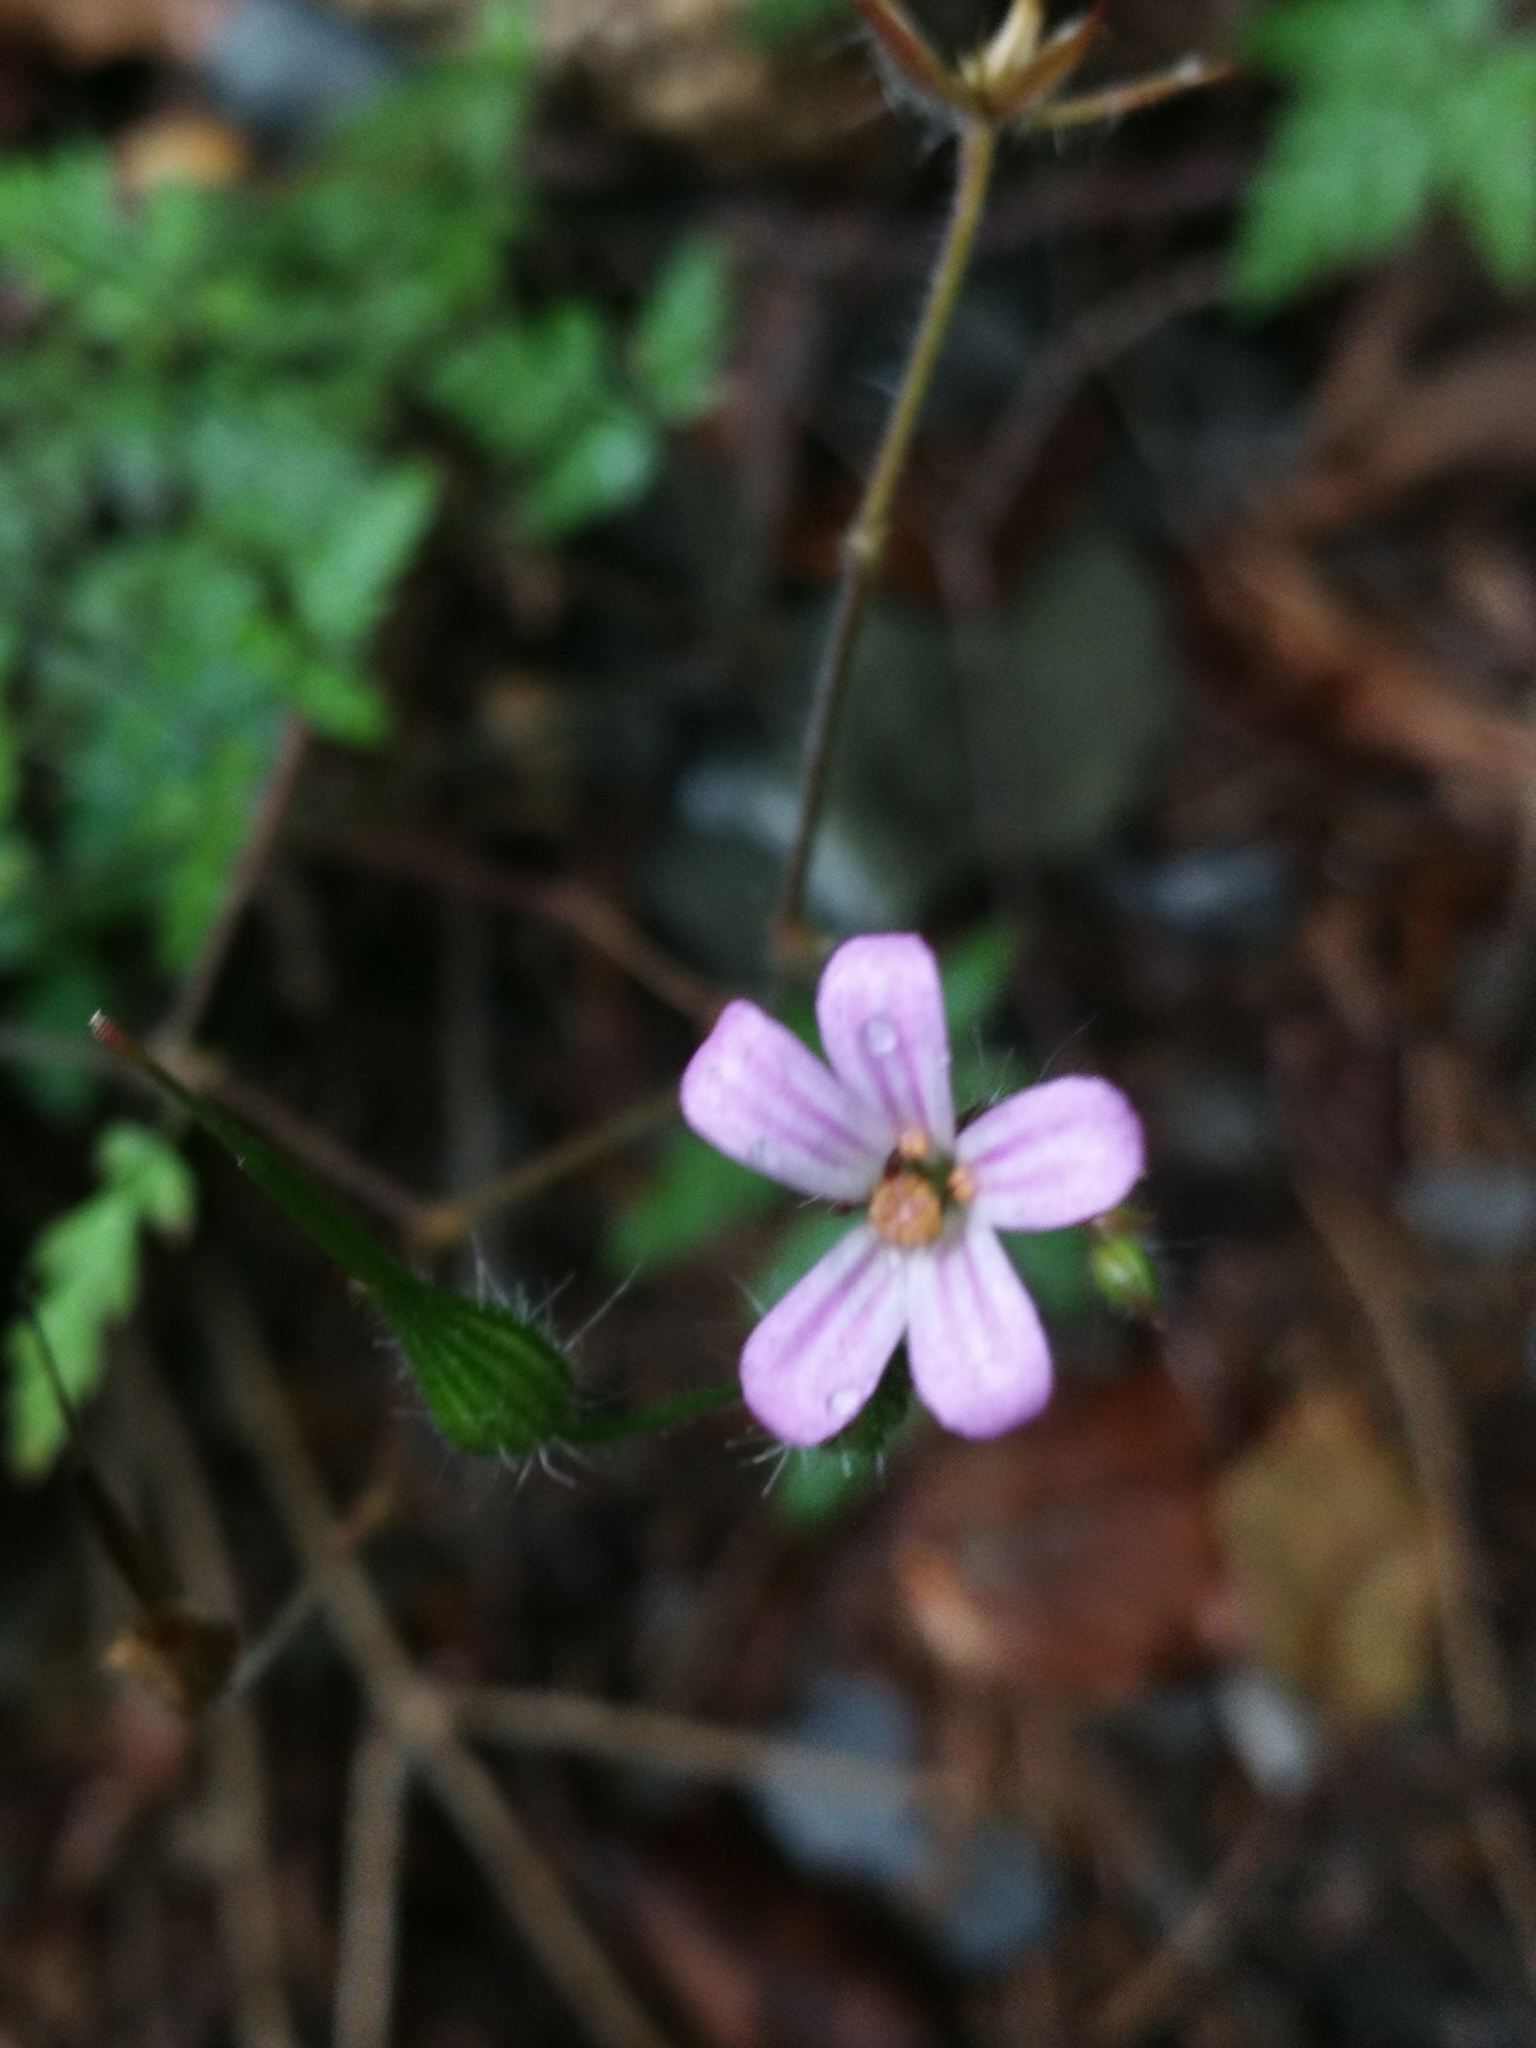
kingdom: Plantae
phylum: Tracheophyta
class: Magnoliopsida
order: Geraniales
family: Geraniaceae
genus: Geranium
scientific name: Geranium robertianum
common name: Herb-robert
